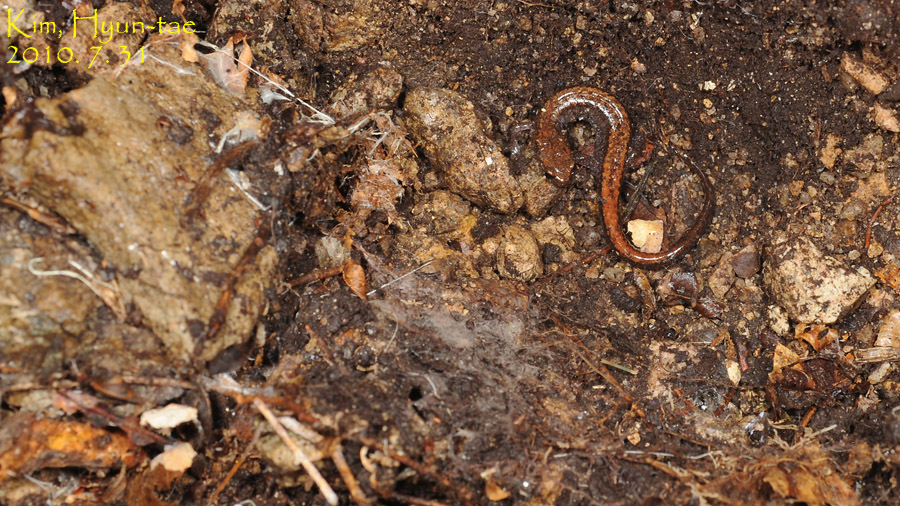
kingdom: Animalia
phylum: Chordata
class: Amphibia
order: Caudata
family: Plethodontidae
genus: Karsenia
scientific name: Karsenia koreana
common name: Korean crevice salamander
